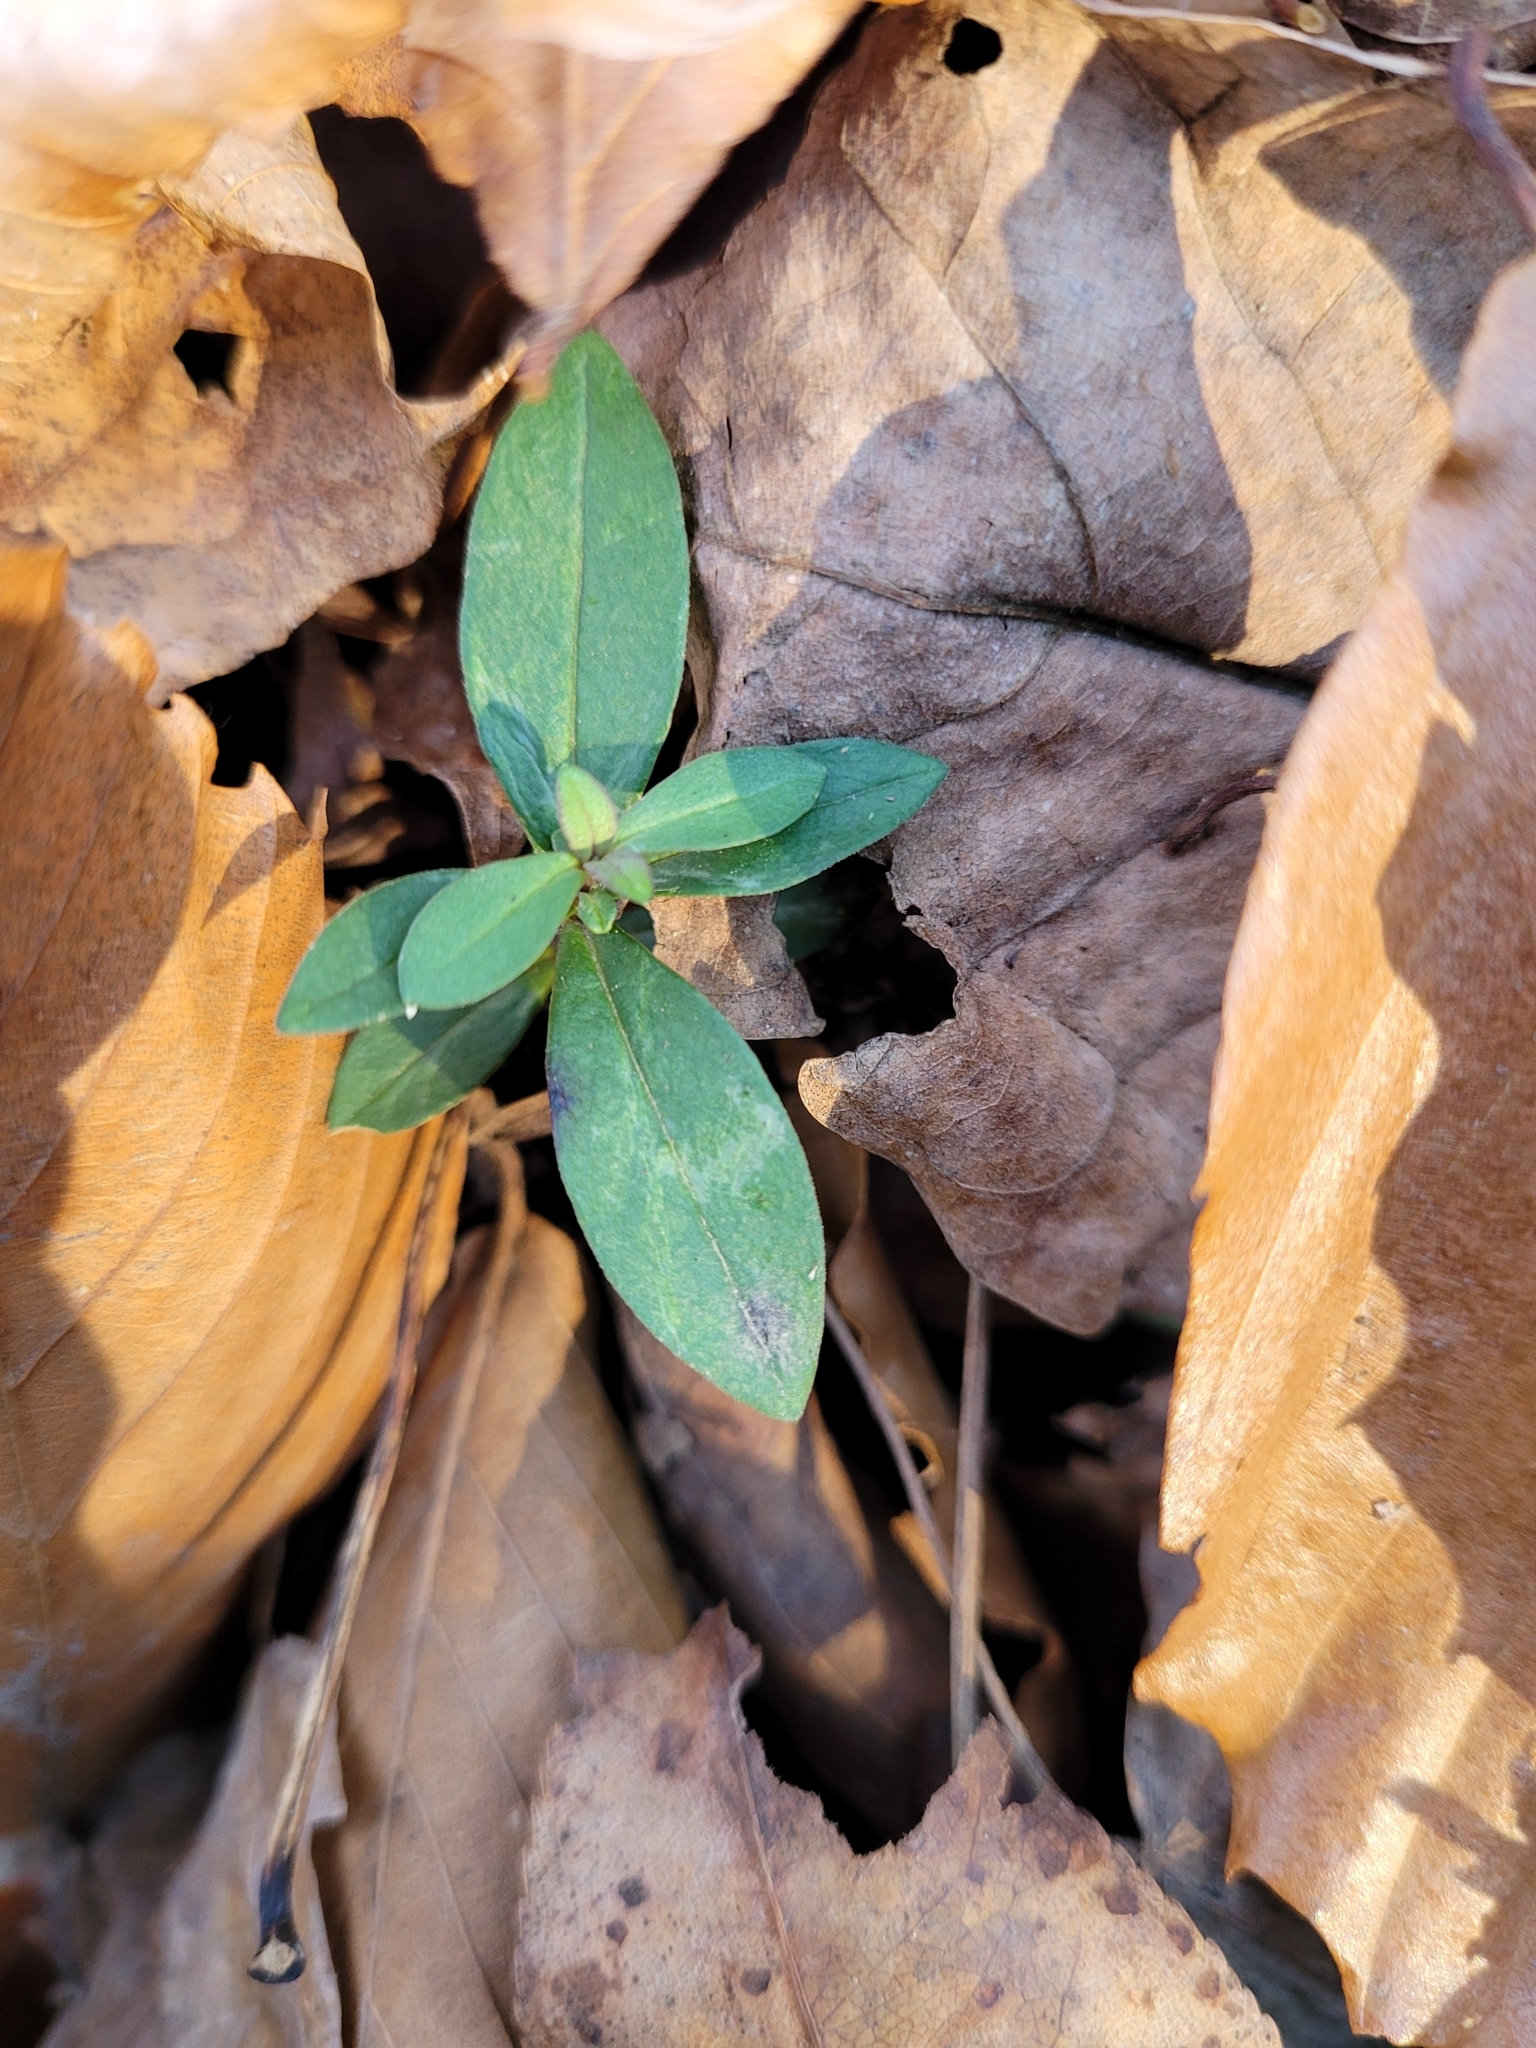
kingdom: Plantae
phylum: Tracheophyta
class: Magnoliopsida
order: Ericales
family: Polemoniaceae
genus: Phlox
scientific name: Phlox divaricata
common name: Blue phlox
